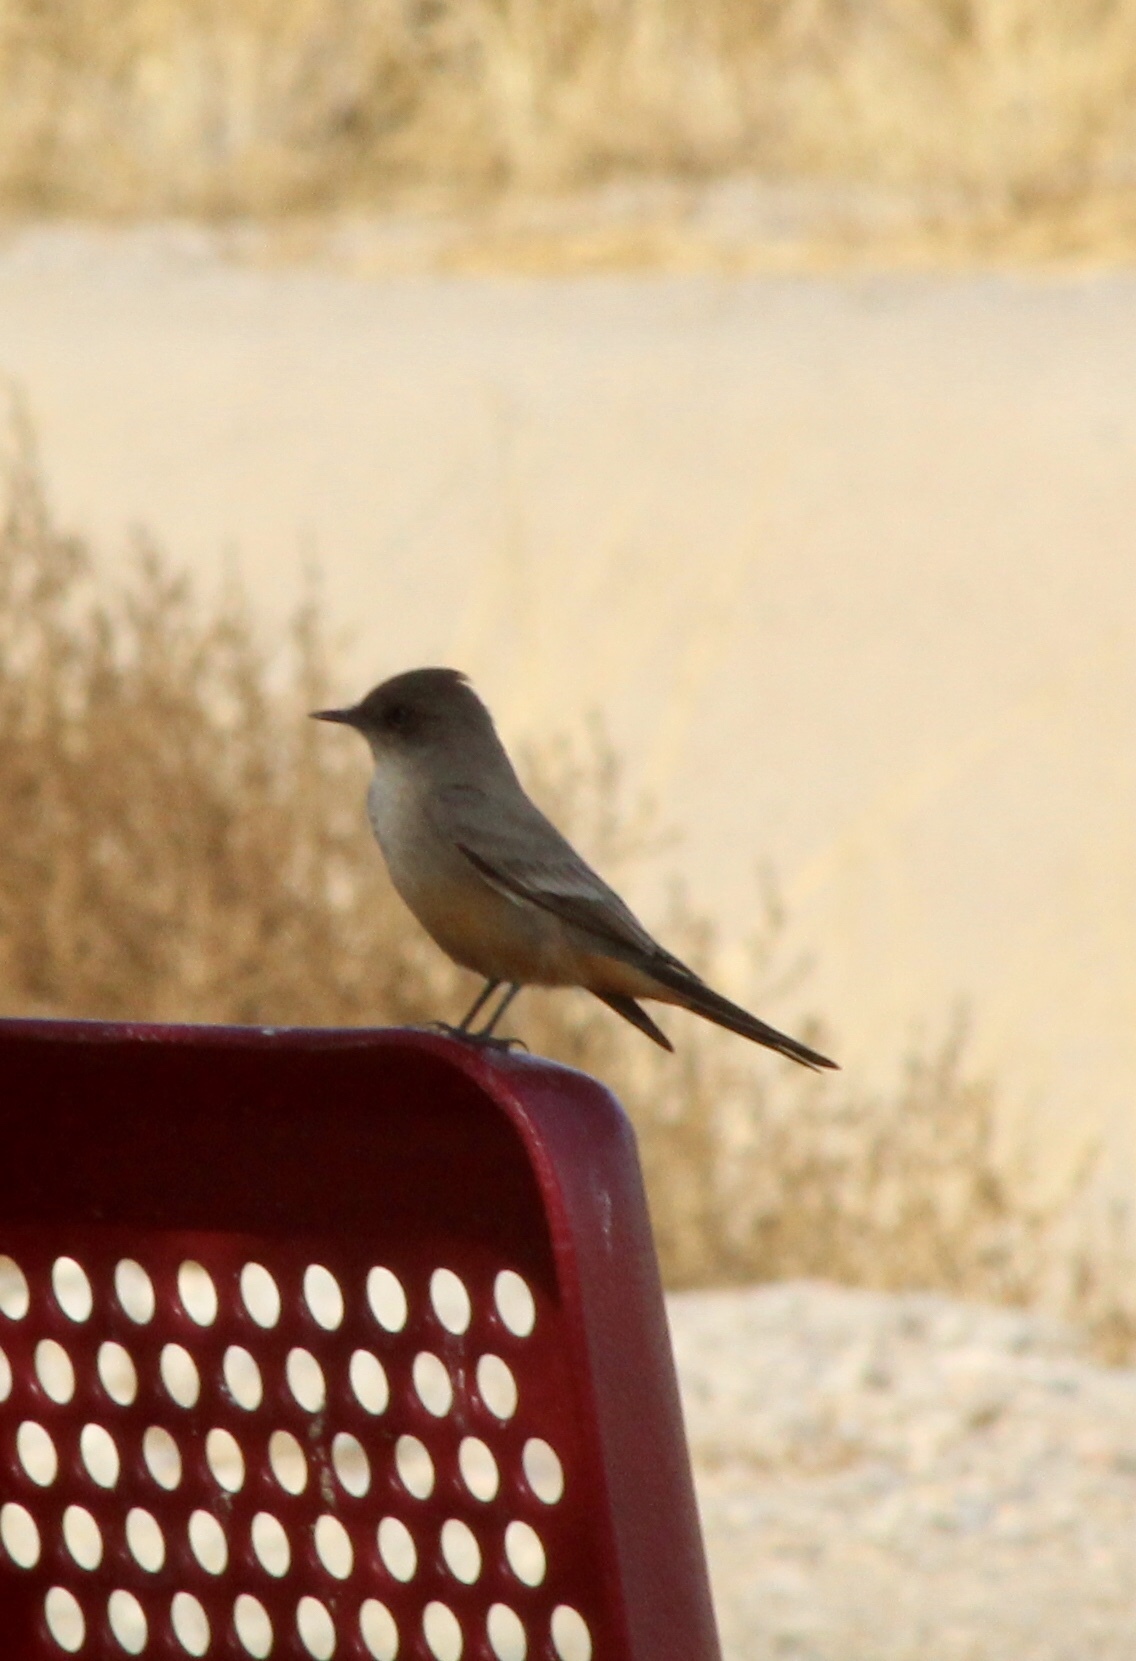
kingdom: Animalia
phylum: Chordata
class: Aves
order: Passeriformes
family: Tyrannidae
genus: Sayornis
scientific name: Sayornis saya
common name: Say's phoebe
